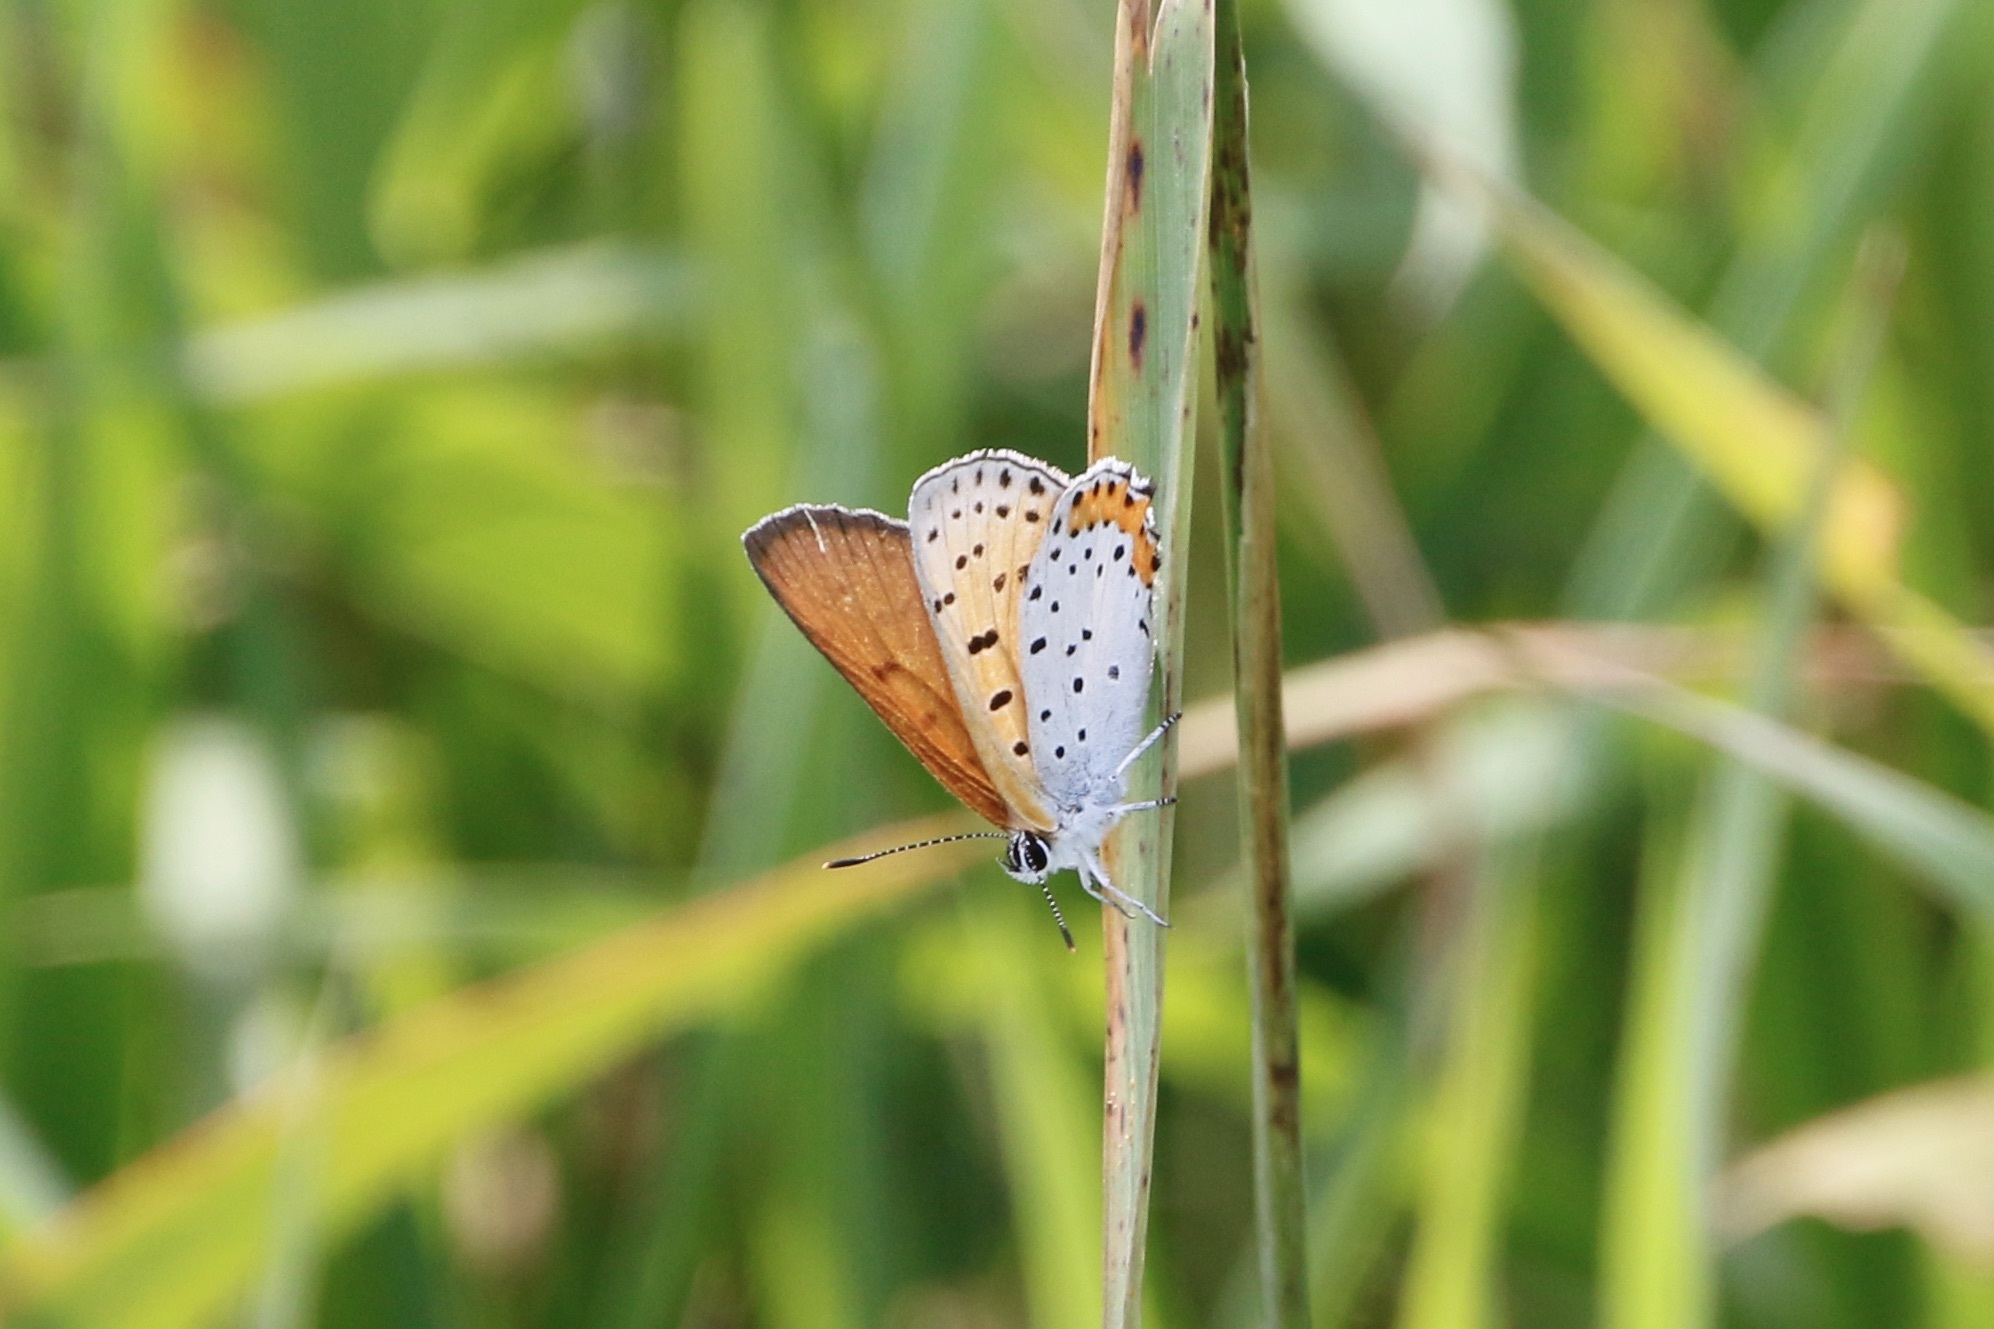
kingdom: Animalia
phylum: Arthropoda
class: Insecta
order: Lepidoptera
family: Lycaenidae
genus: Tharsalea
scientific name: Tharsalea hyllus
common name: Bronze copper
